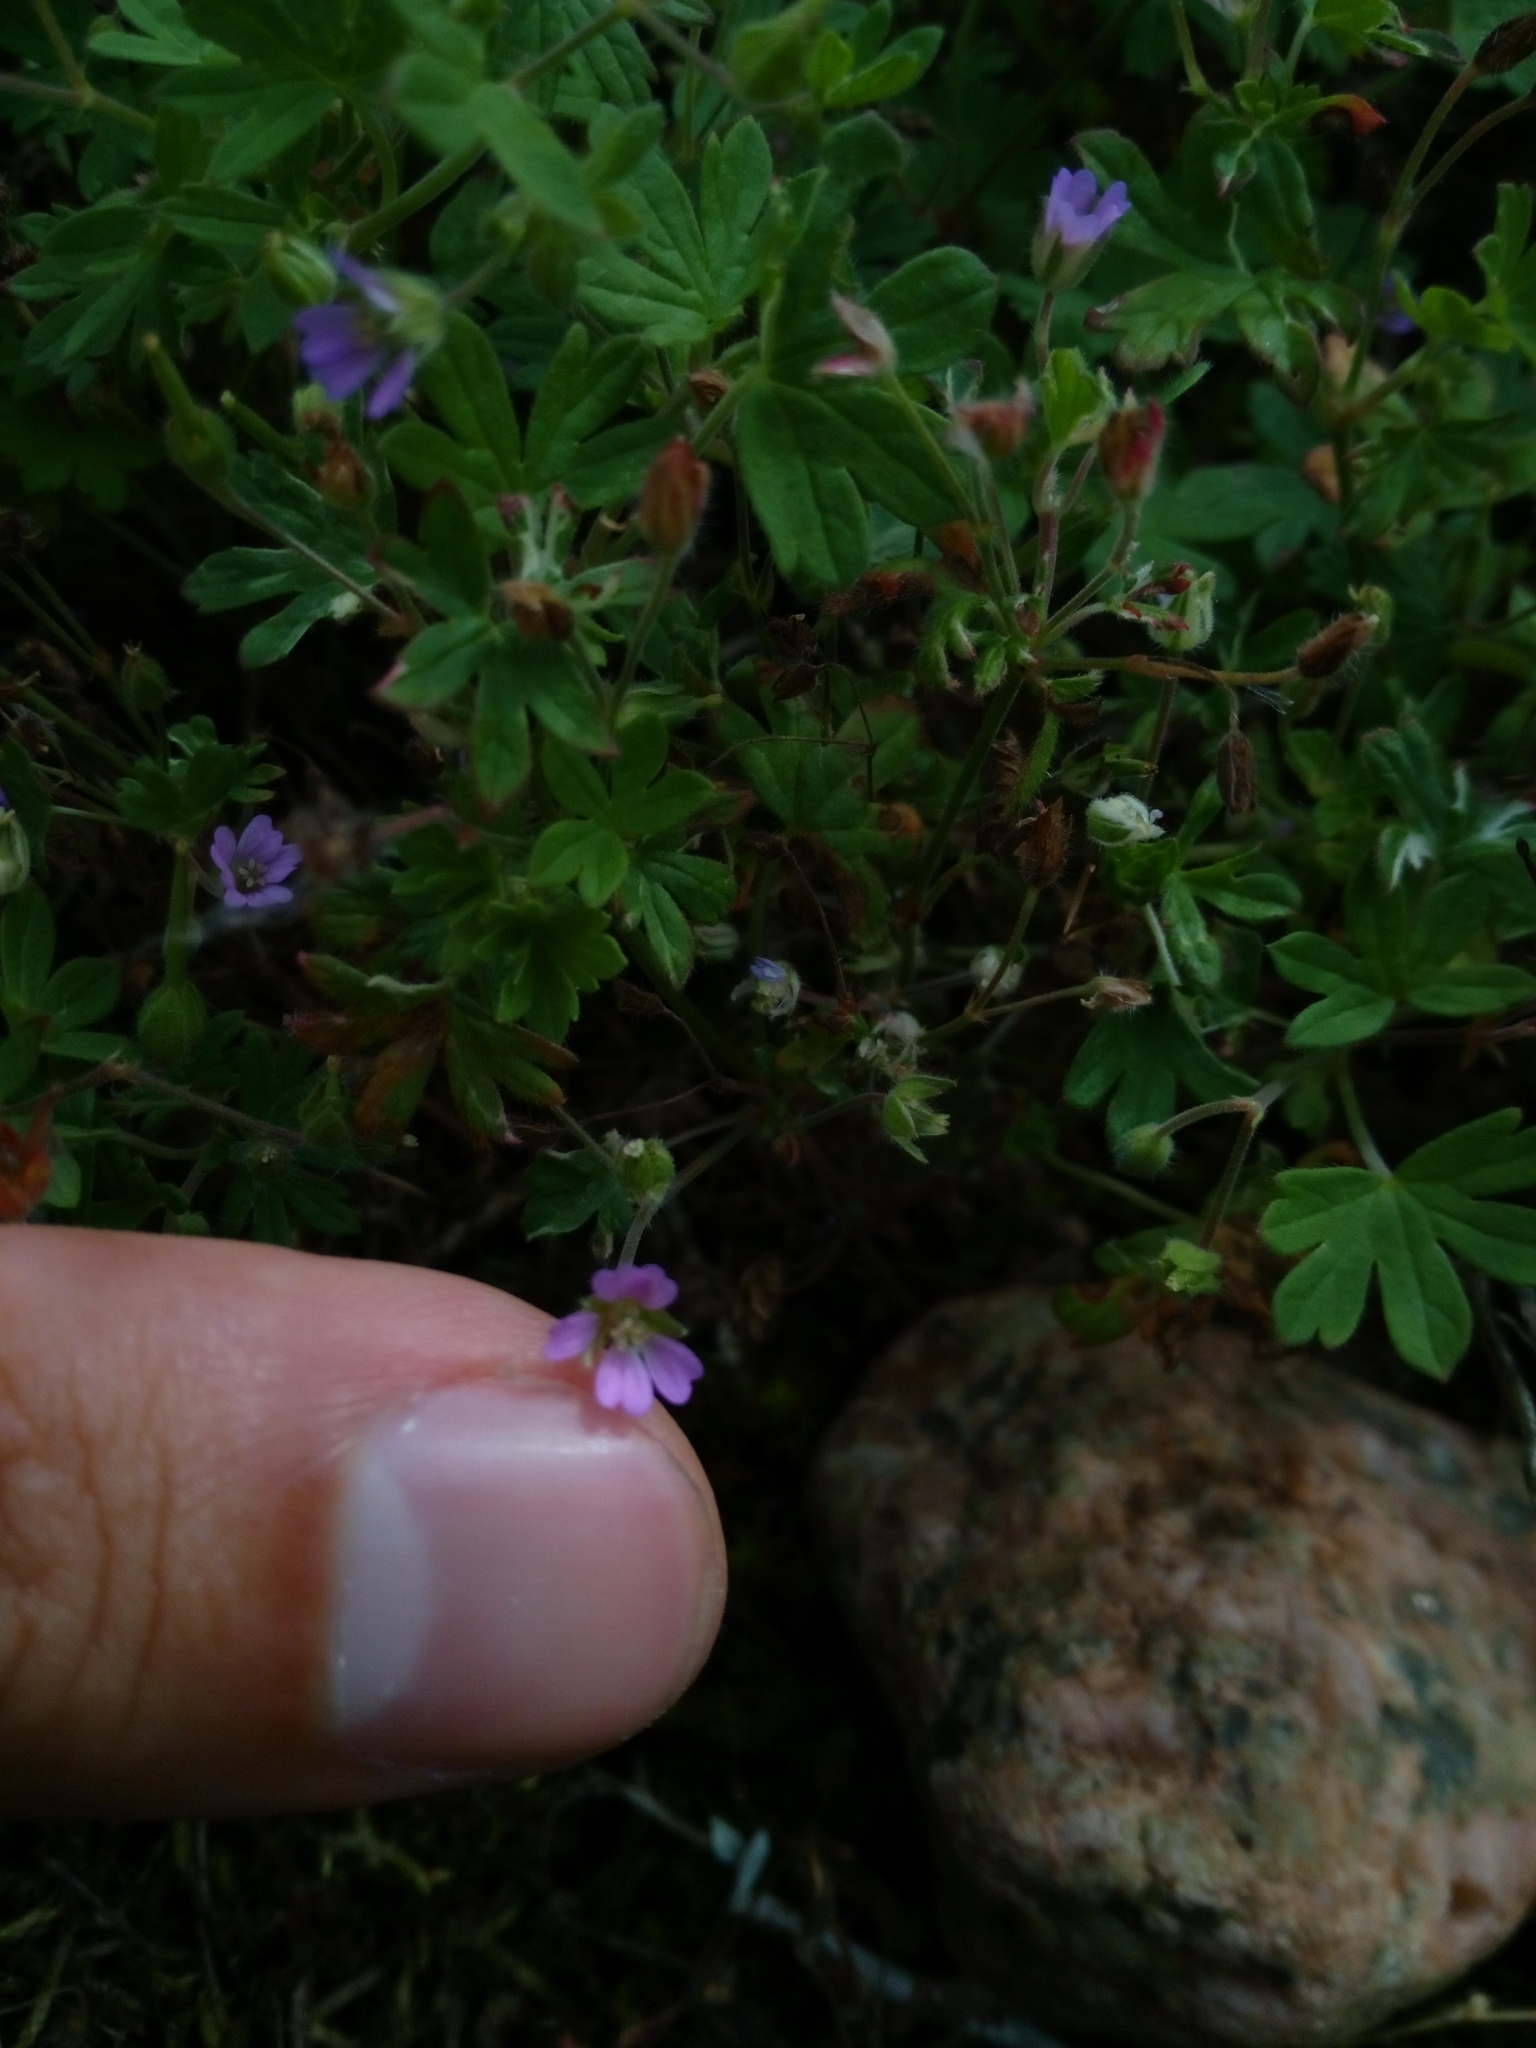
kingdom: Plantae
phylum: Tracheophyta
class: Magnoliopsida
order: Geraniales
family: Geraniaceae
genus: Geranium
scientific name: Geranium pusillum
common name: Small geranium
